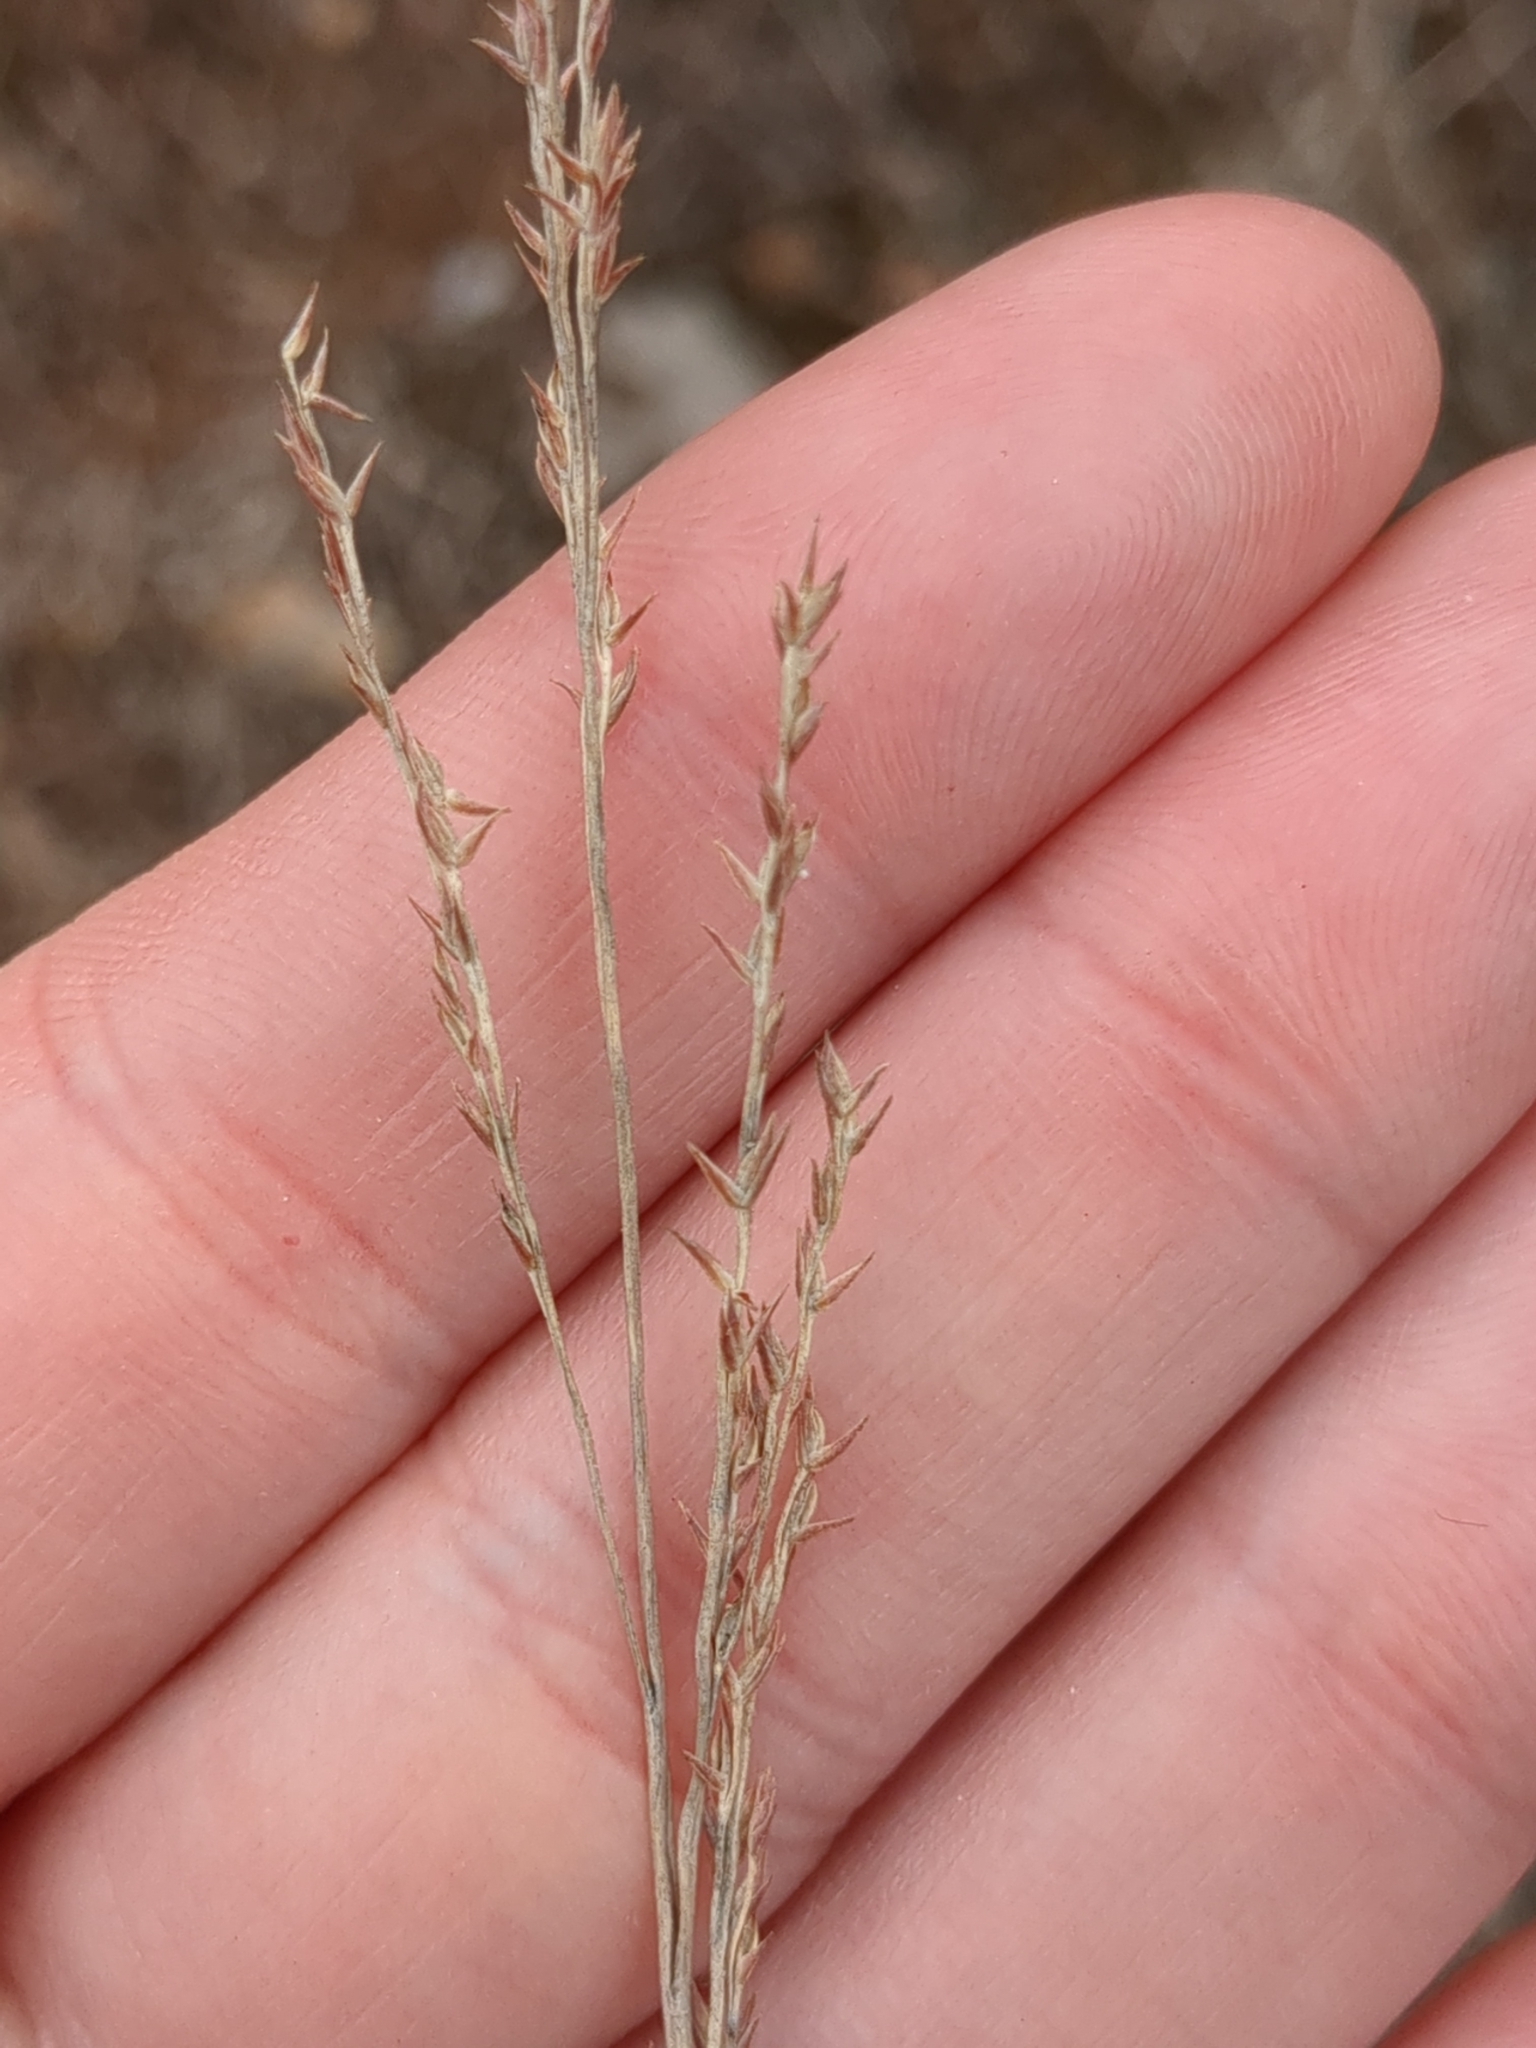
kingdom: Plantae
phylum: Tracheophyta
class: Liliopsida
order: Poales
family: Poaceae
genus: Eragrostis
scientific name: Eragrostis secundiflora
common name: Red love grass
